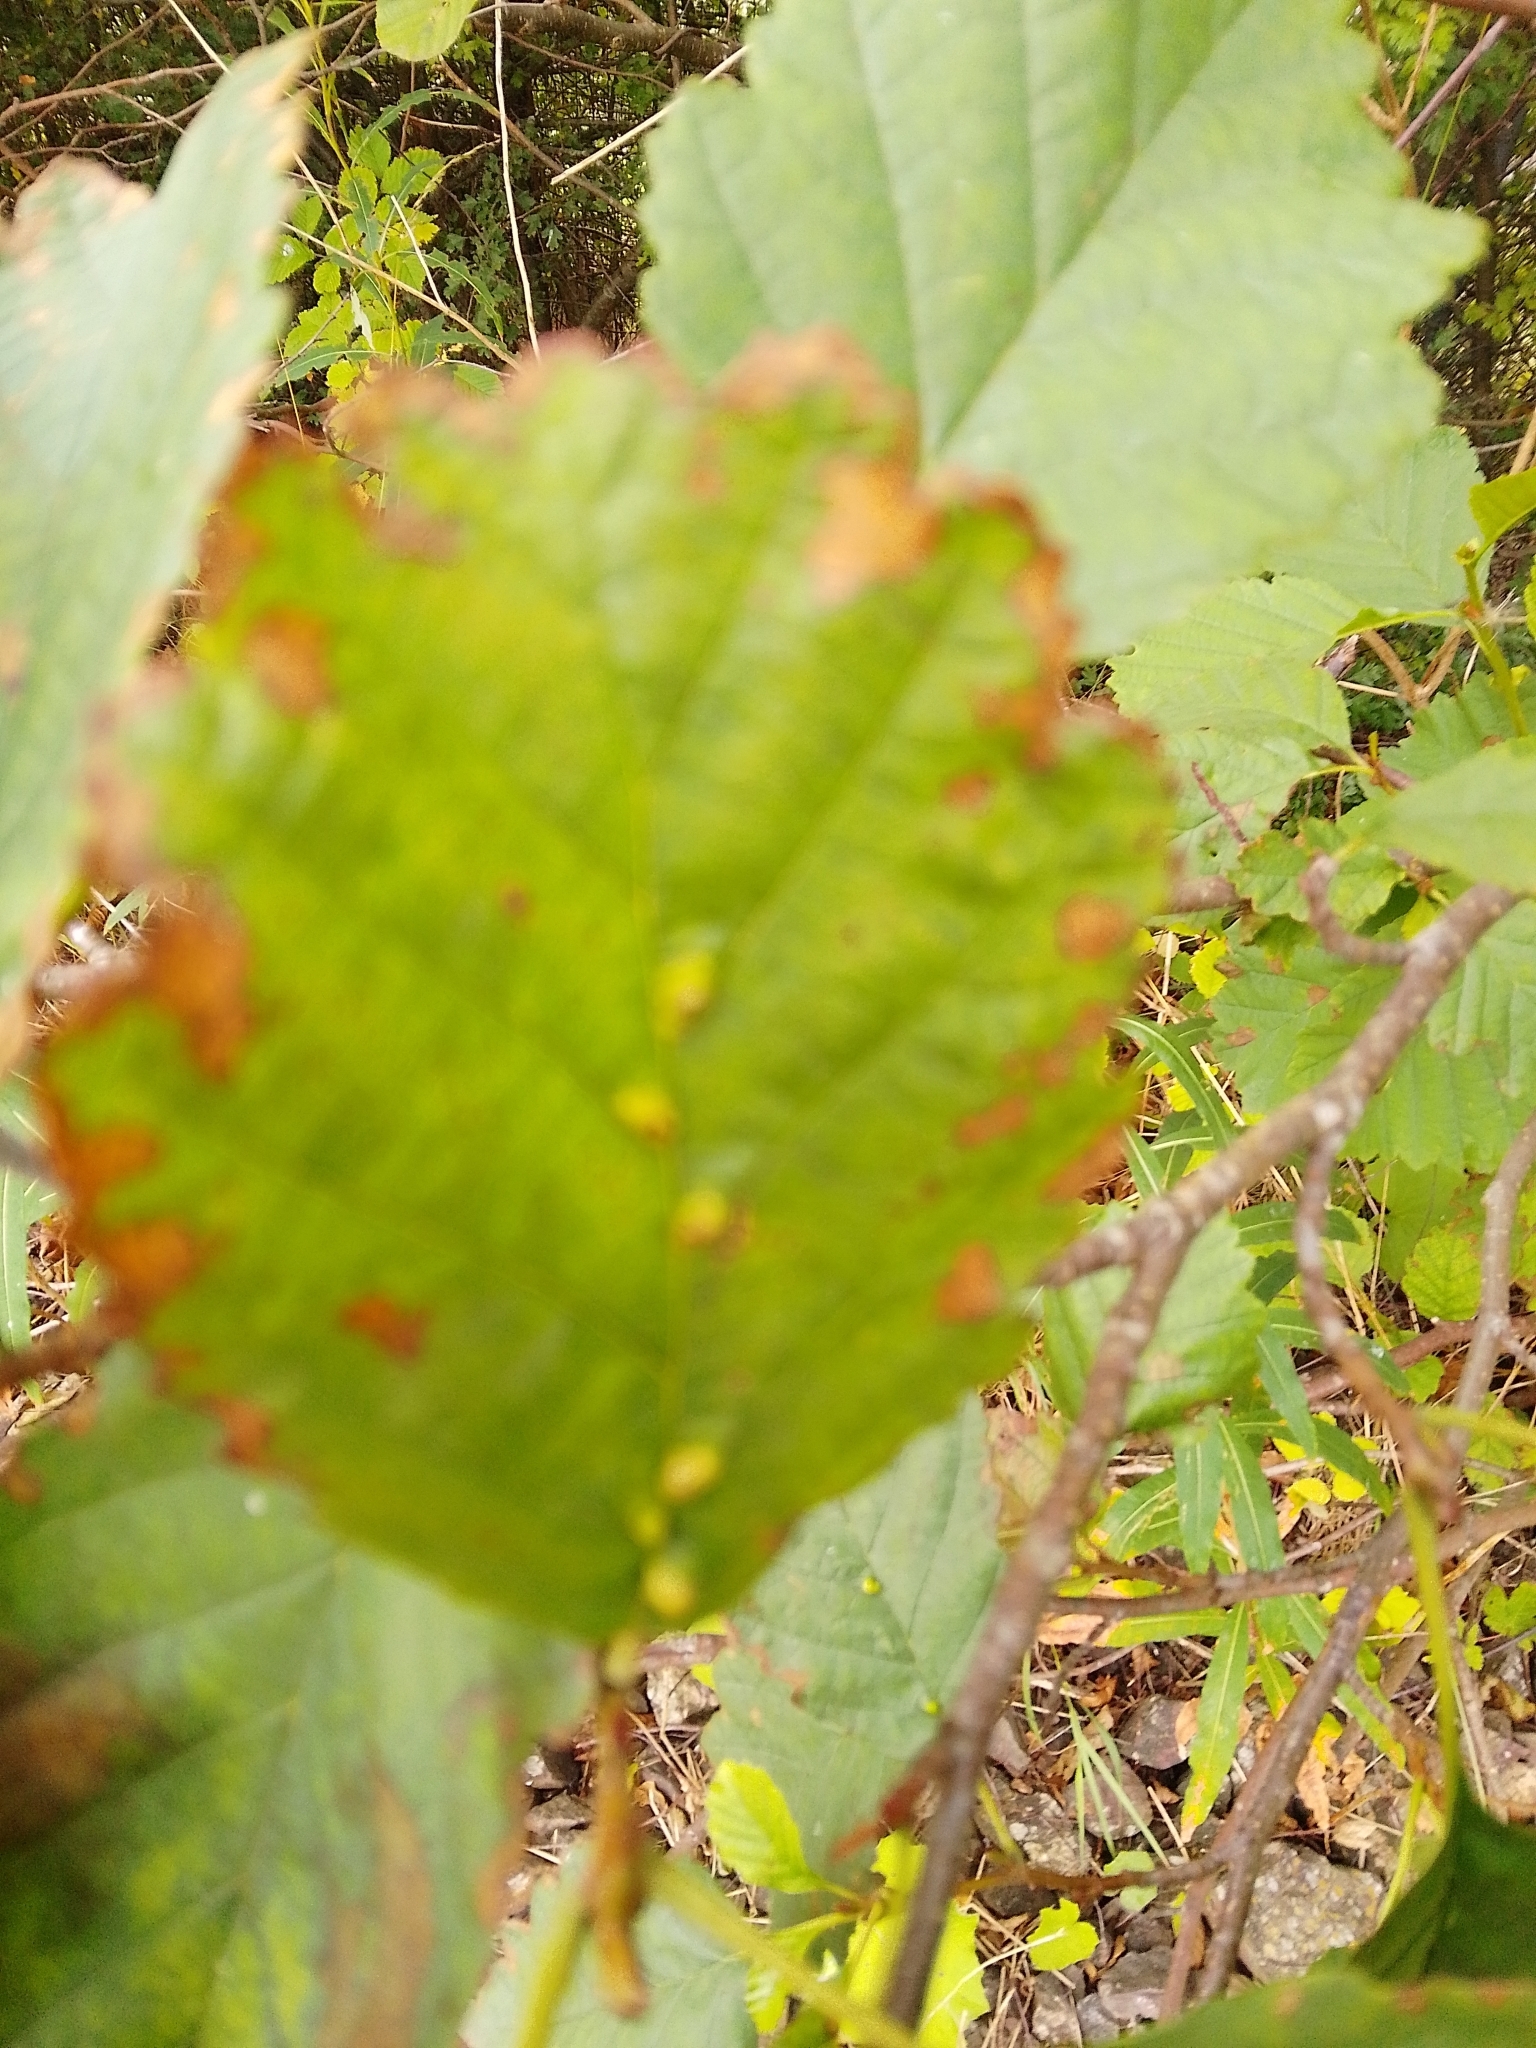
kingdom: Animalia
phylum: Arthropoda
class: Arachnida
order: Trombidiformes
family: Eriophyidae
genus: Eriophyes
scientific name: Eriophyes inangulis
